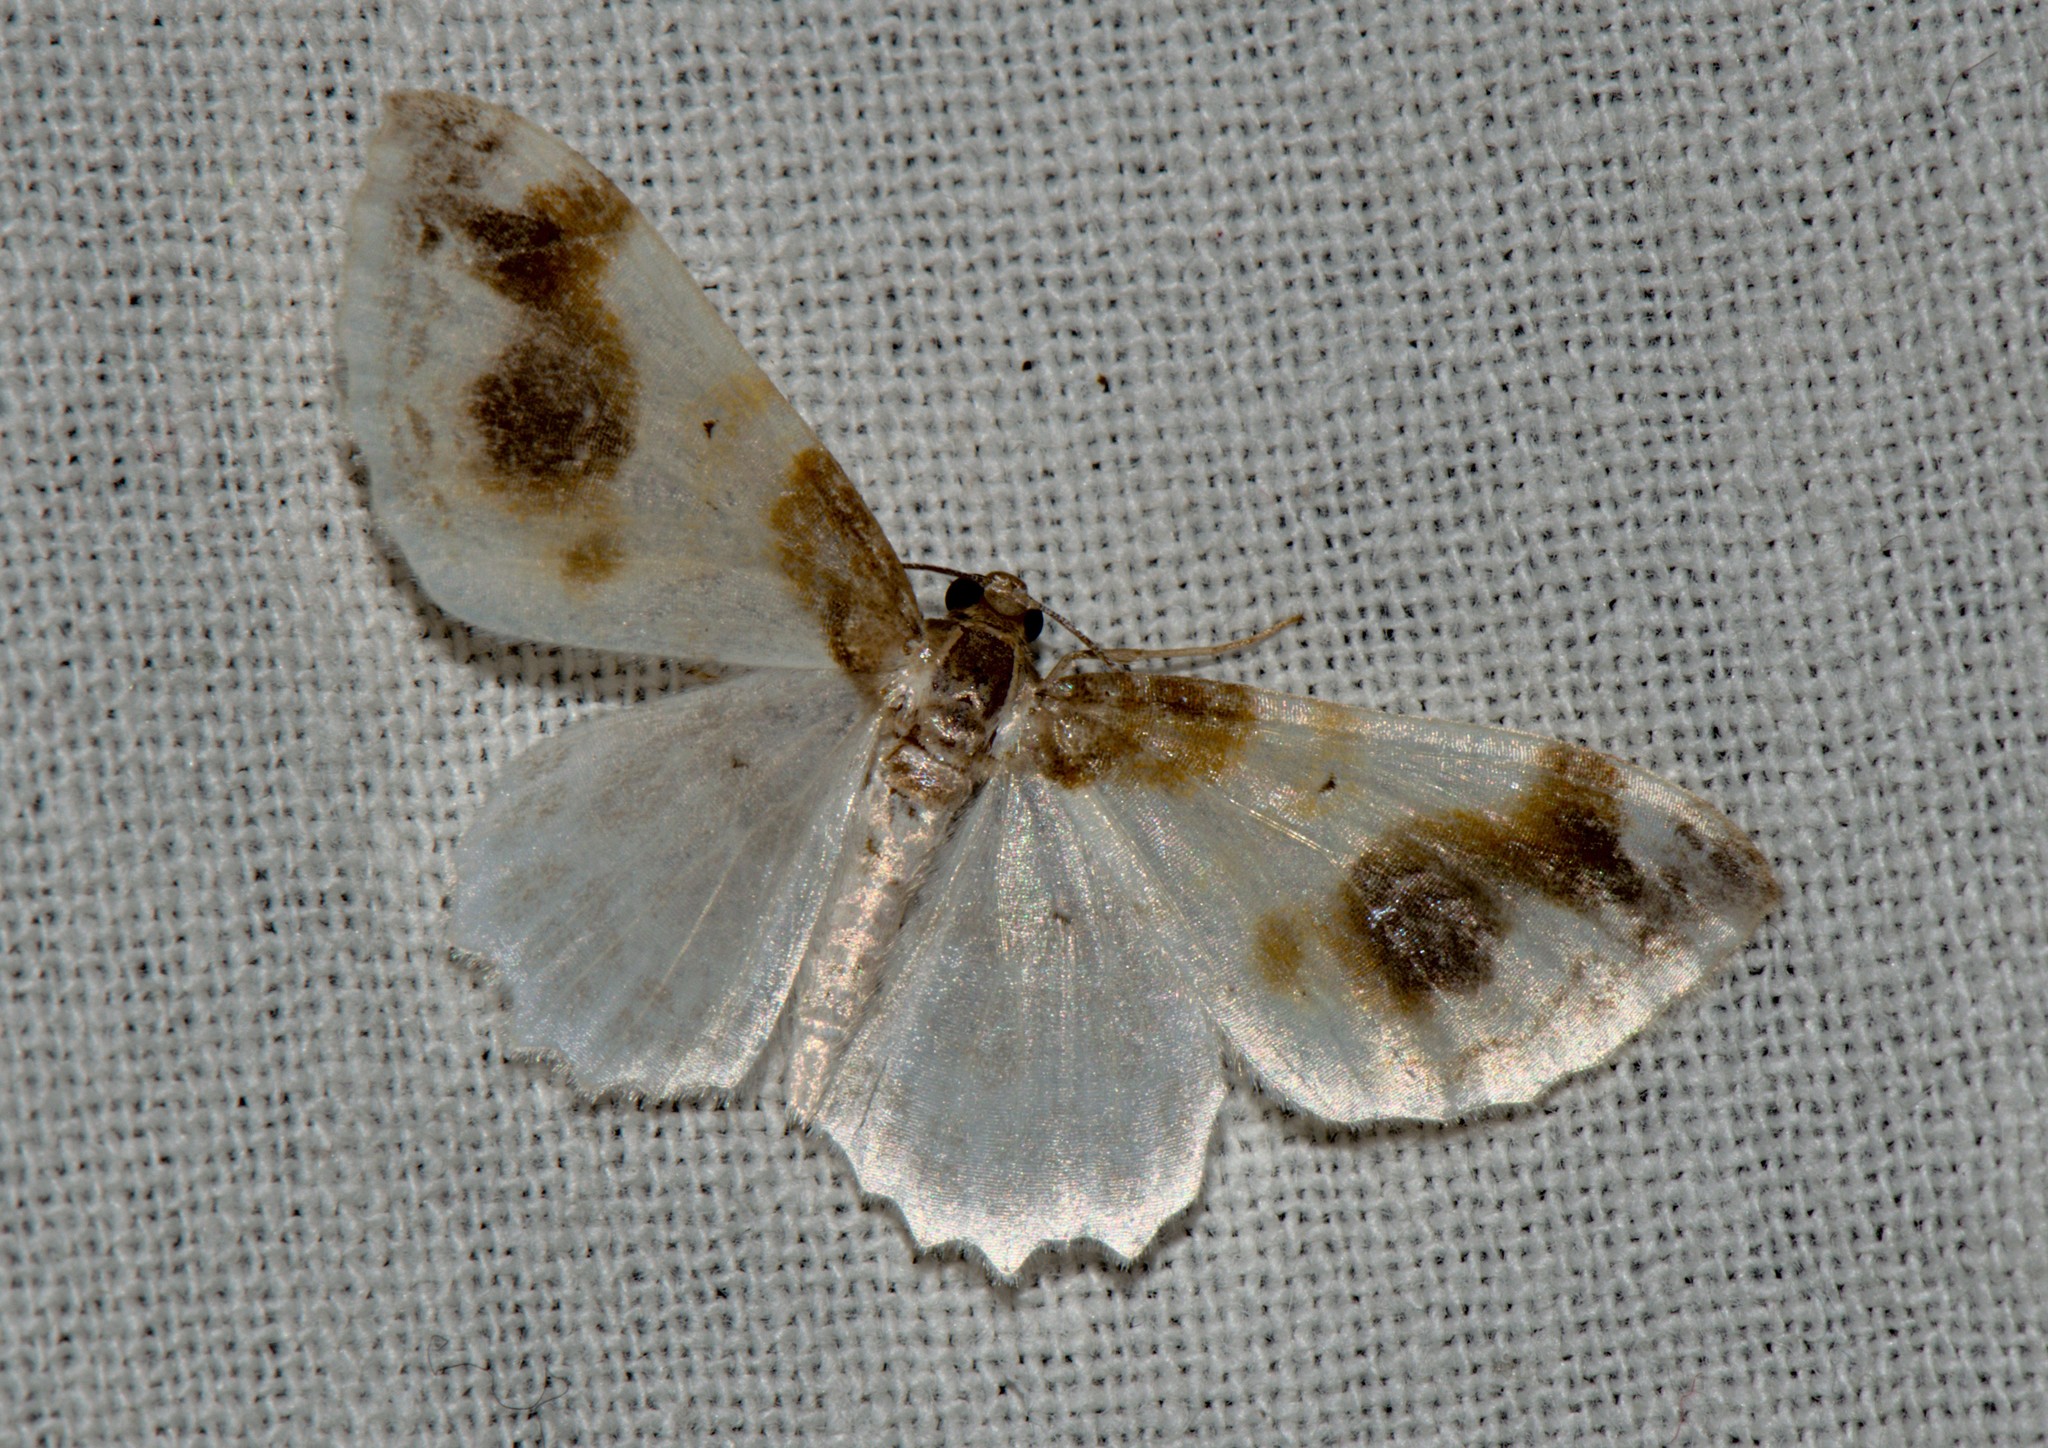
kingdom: Animalia
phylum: Arthropoda
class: Insecta
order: Lepidoptera
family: Geometridae
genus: Agnibesa
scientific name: Agnibesa pictaria
